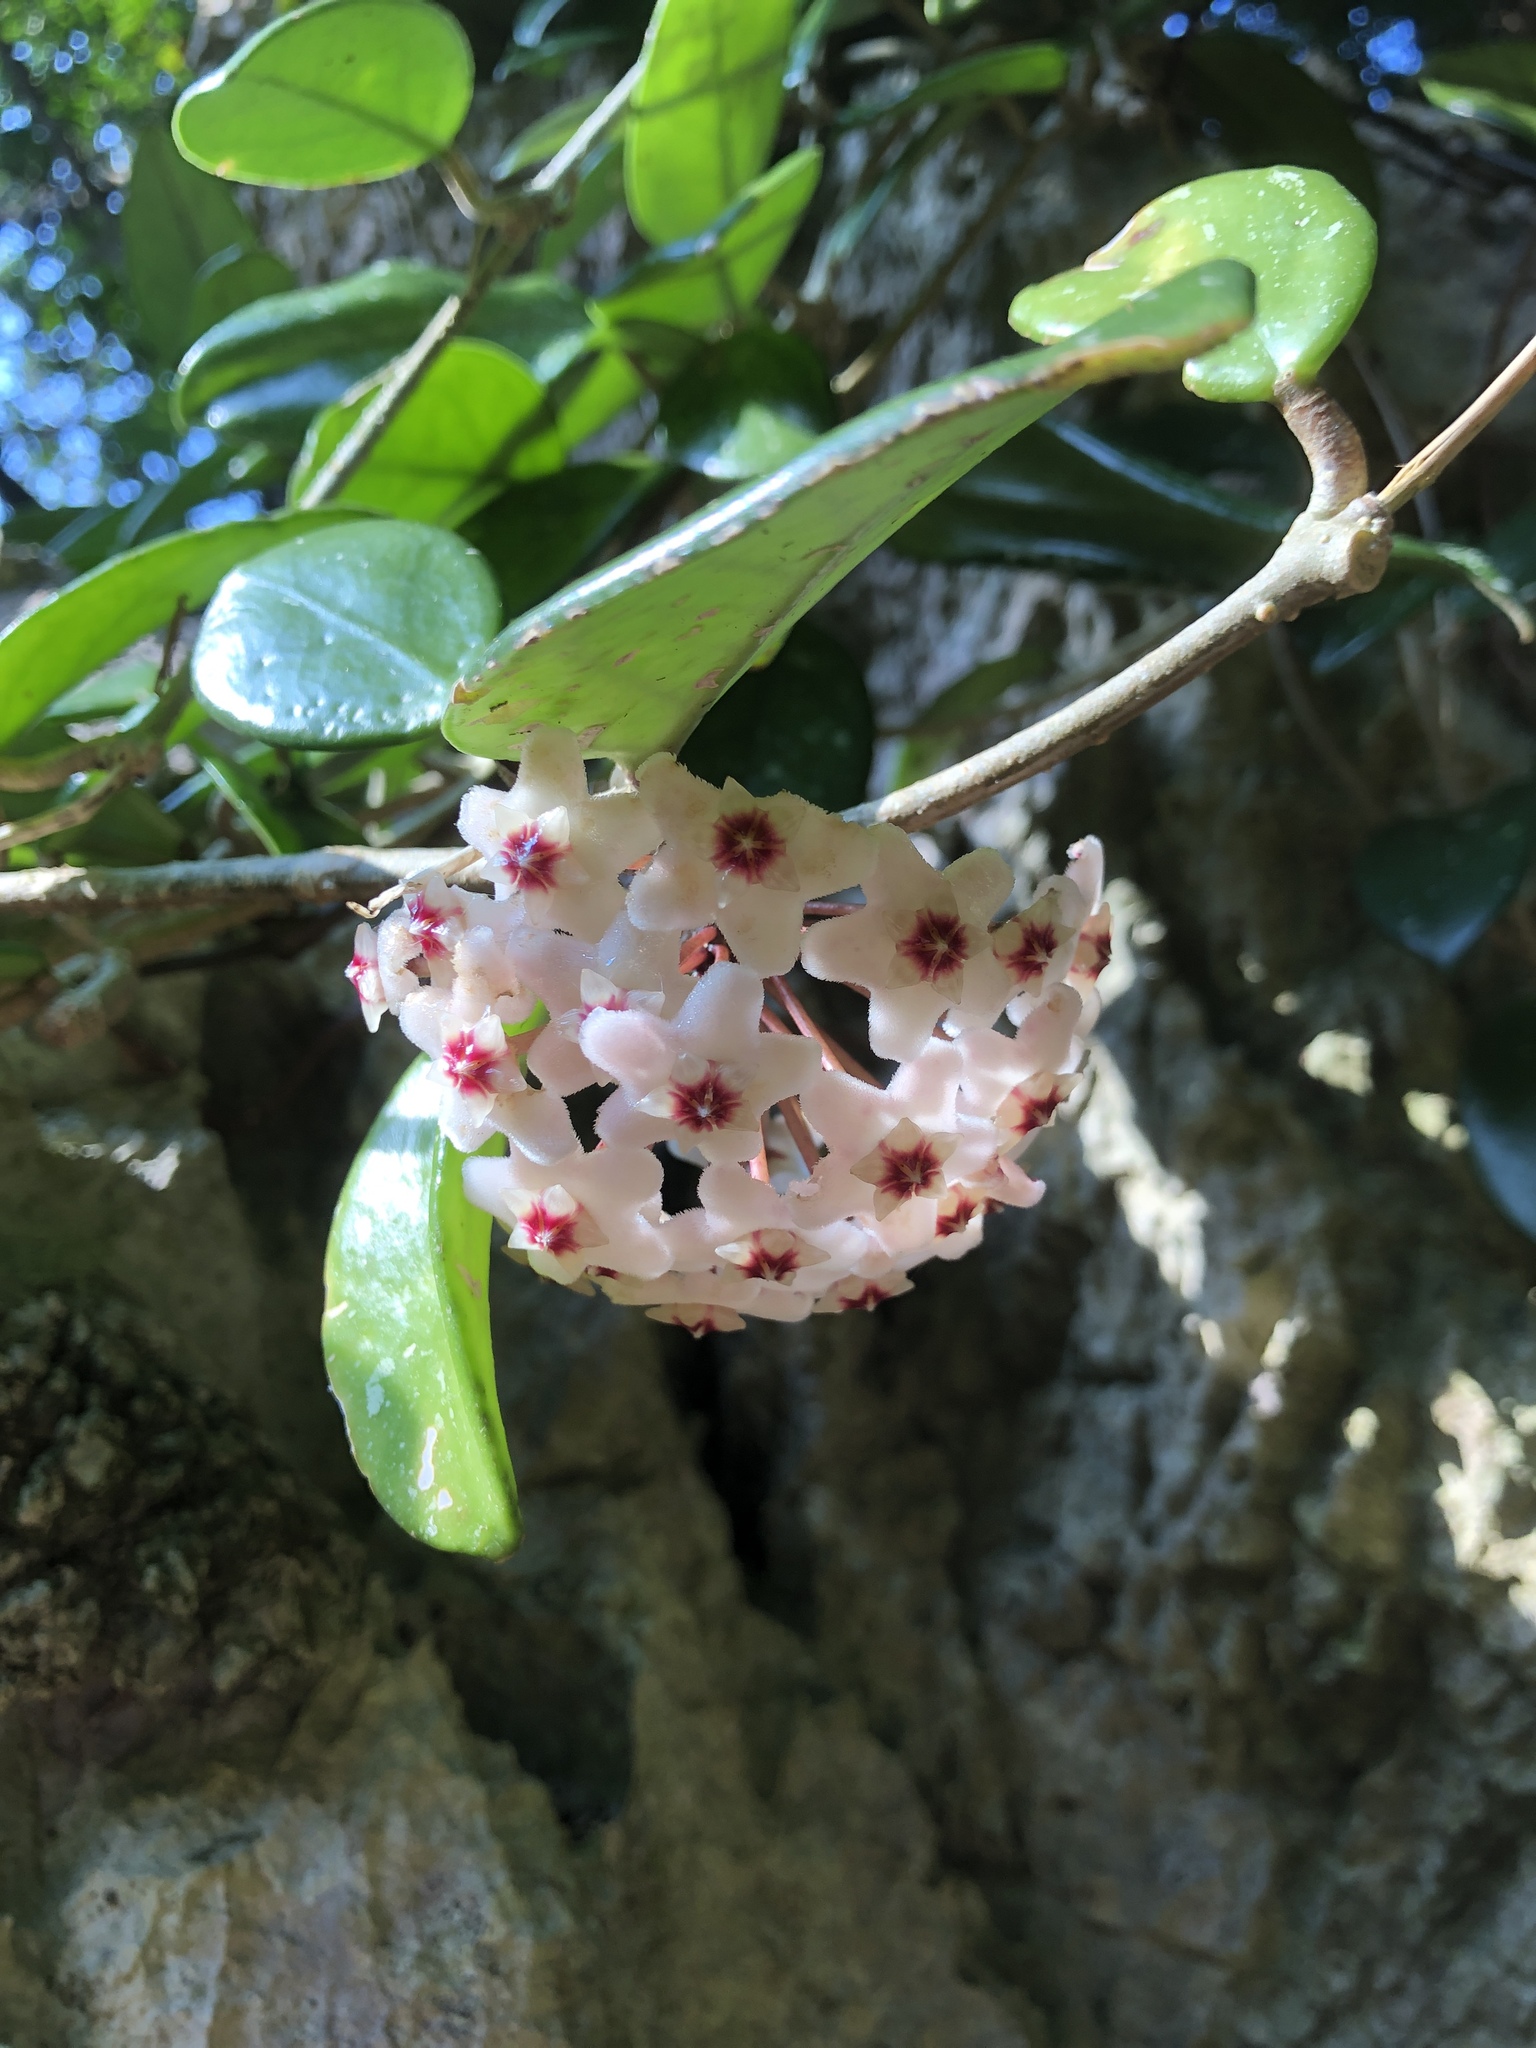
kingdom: Plantae
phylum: Tracheophyta
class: Magnoliopsida
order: Gentianales
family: Apocynaceae
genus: Hoya
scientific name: Hoya carnosa
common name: Honeyplant
